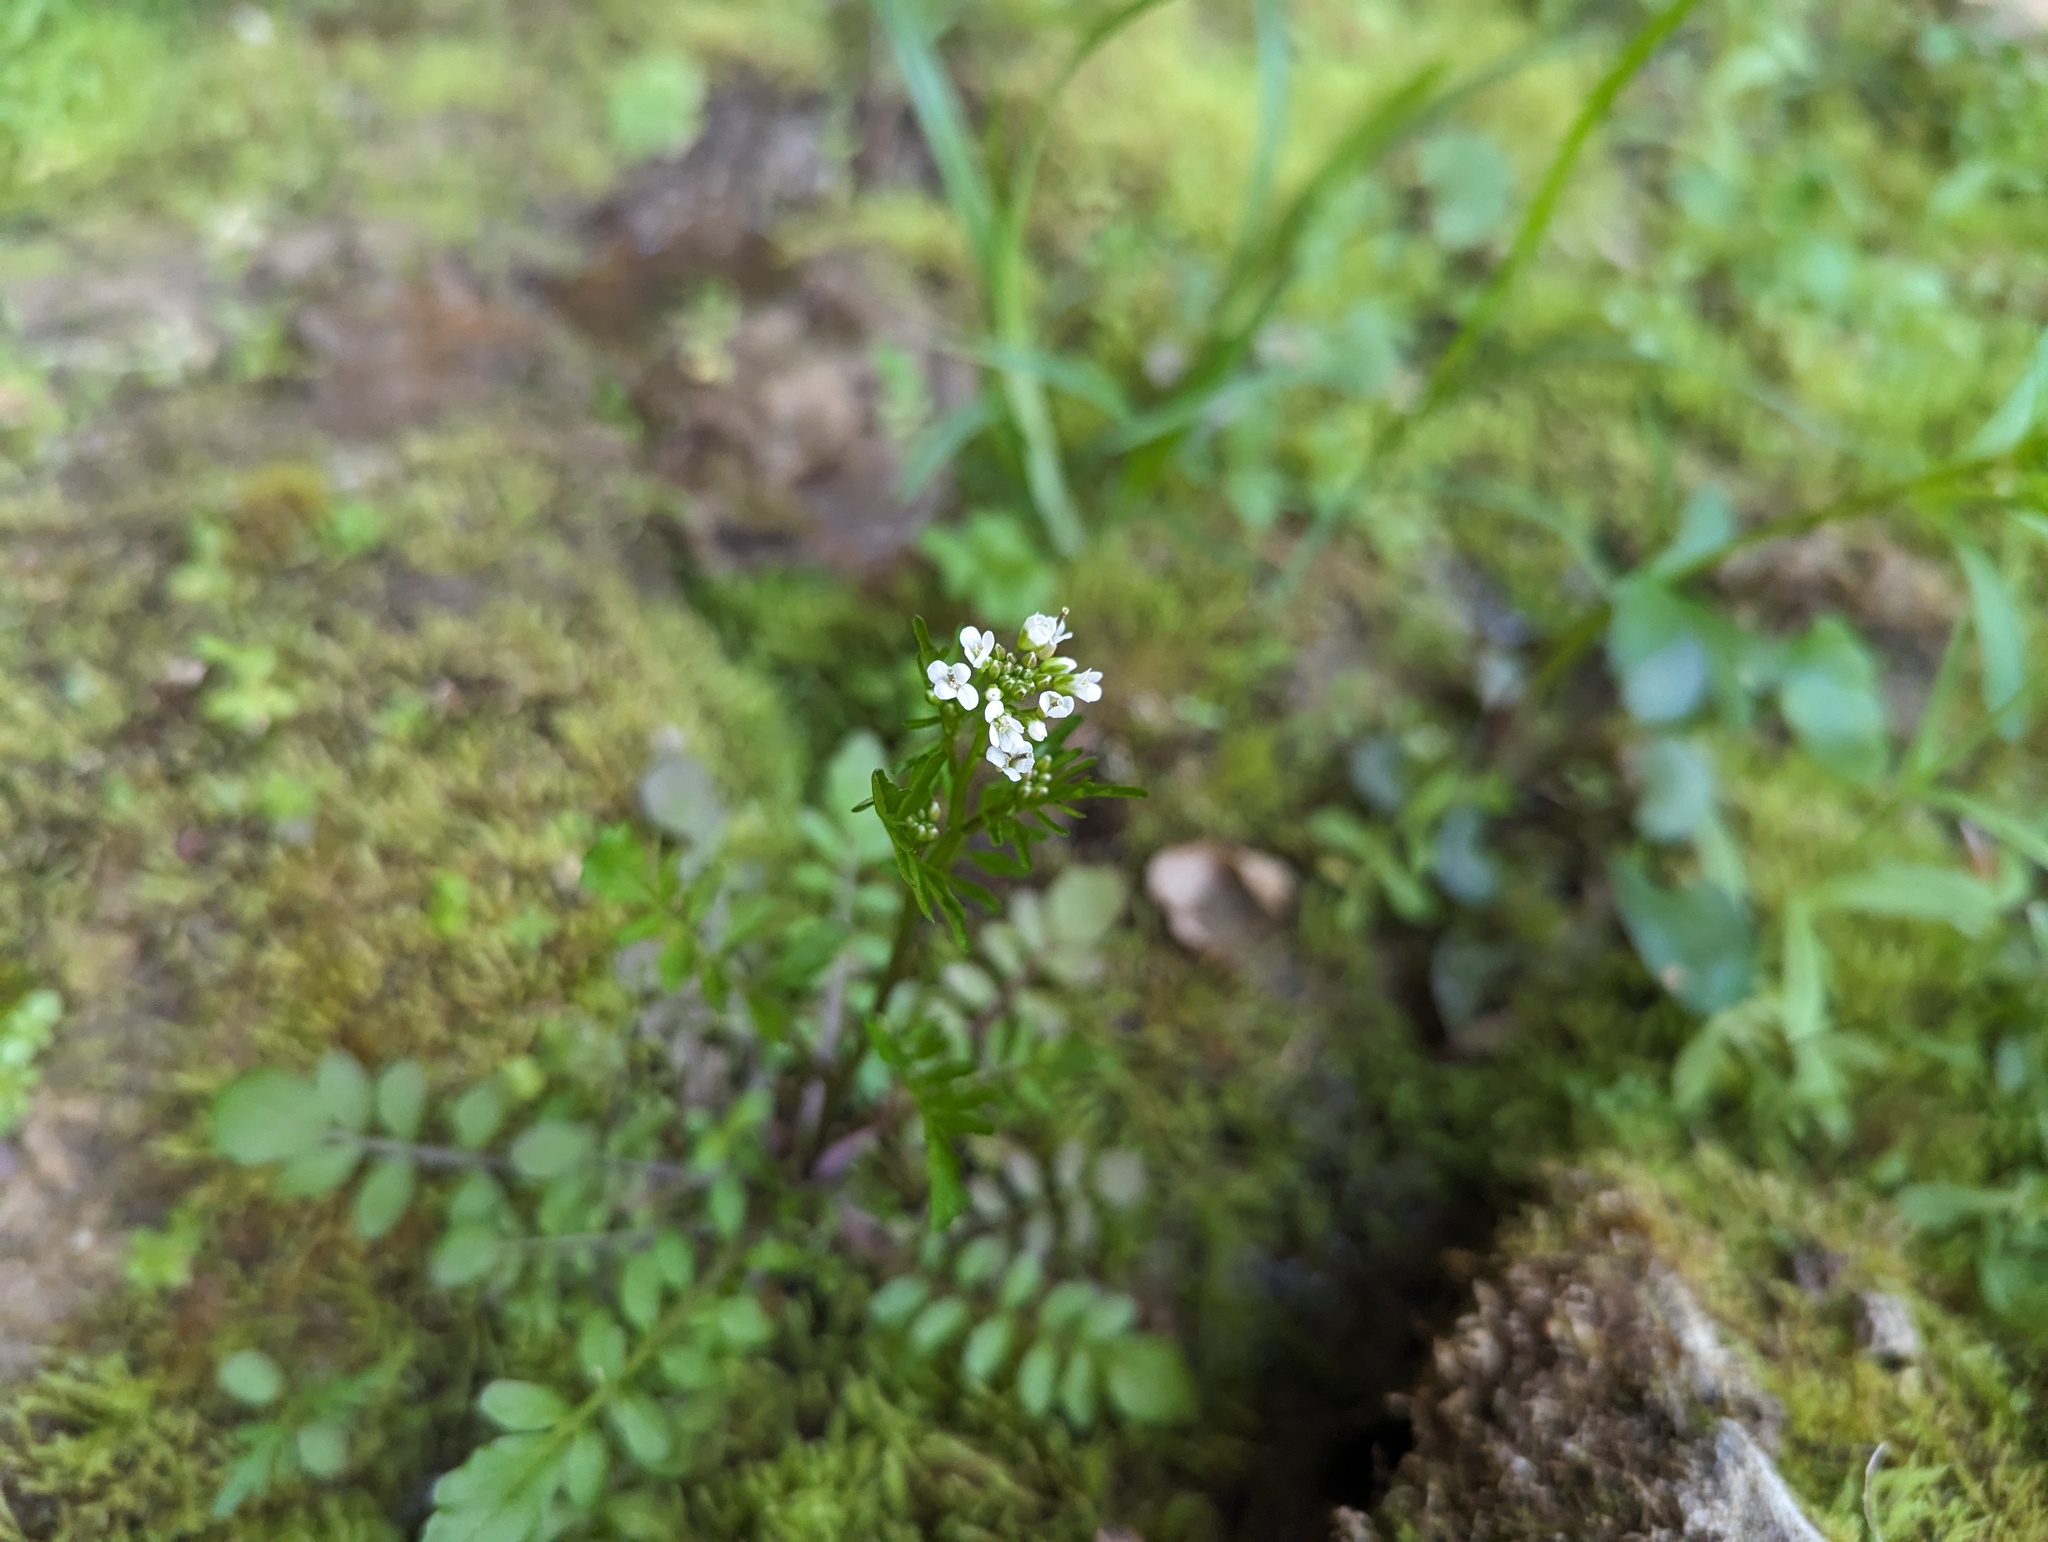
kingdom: Plantae
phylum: Tracheophyta
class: Magnoliopsida
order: Brassicales
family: Brassicaceae
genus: Cardamine
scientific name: Cardamine pensylvanica
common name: Pennsylvania bittercress
